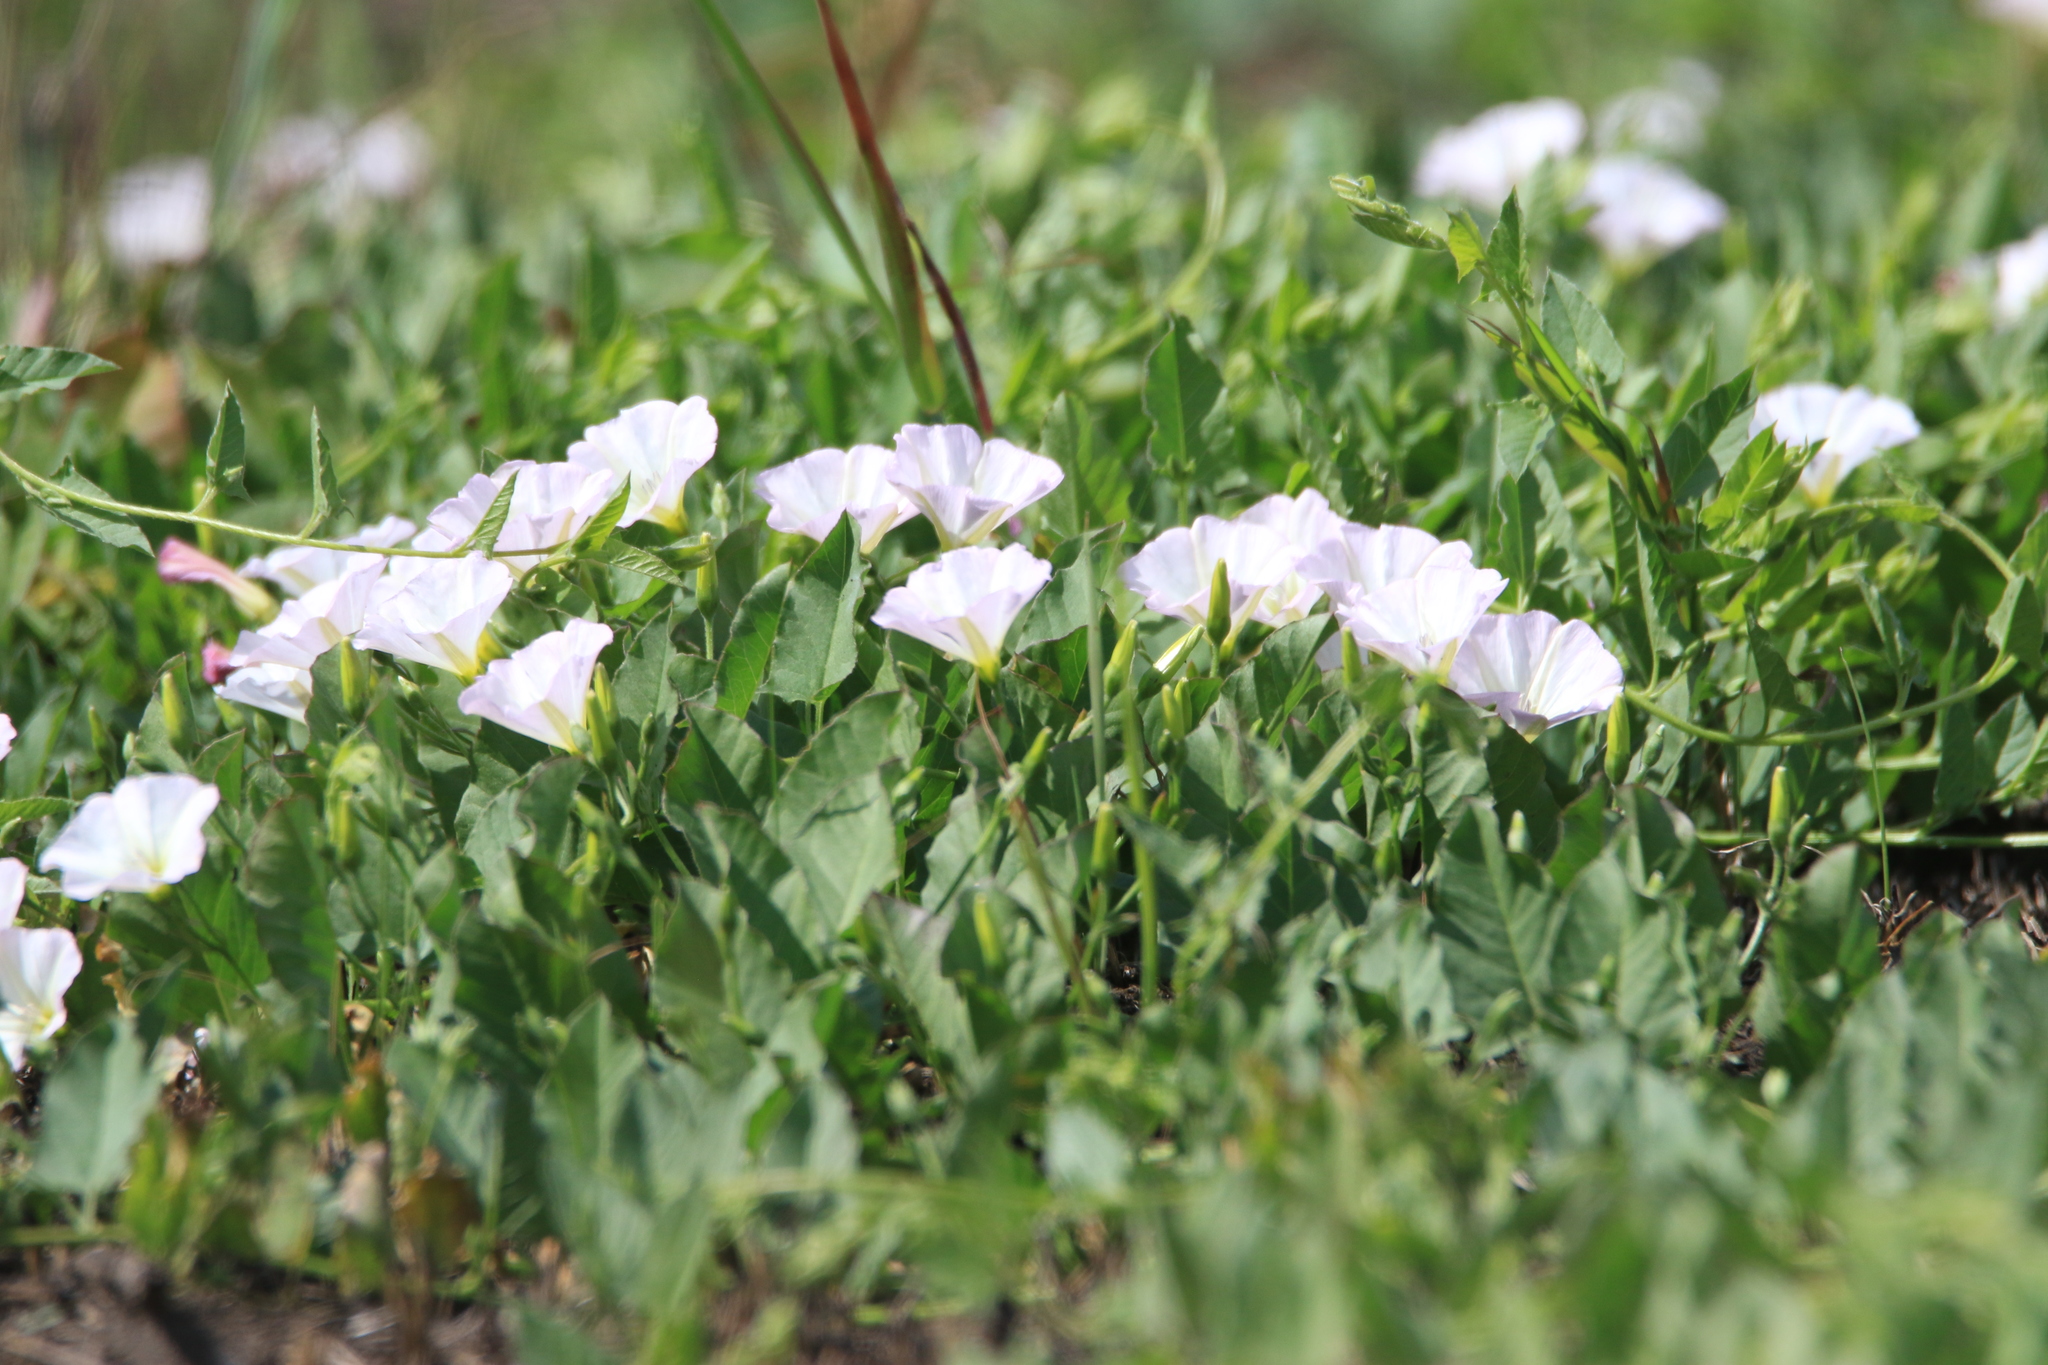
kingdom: Plantae
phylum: Tracheophyta
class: Magnoliopsida
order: Solanales
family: Convolvulaceae
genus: Convolvulus
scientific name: Convolvulus arvensis
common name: Field bindweed
